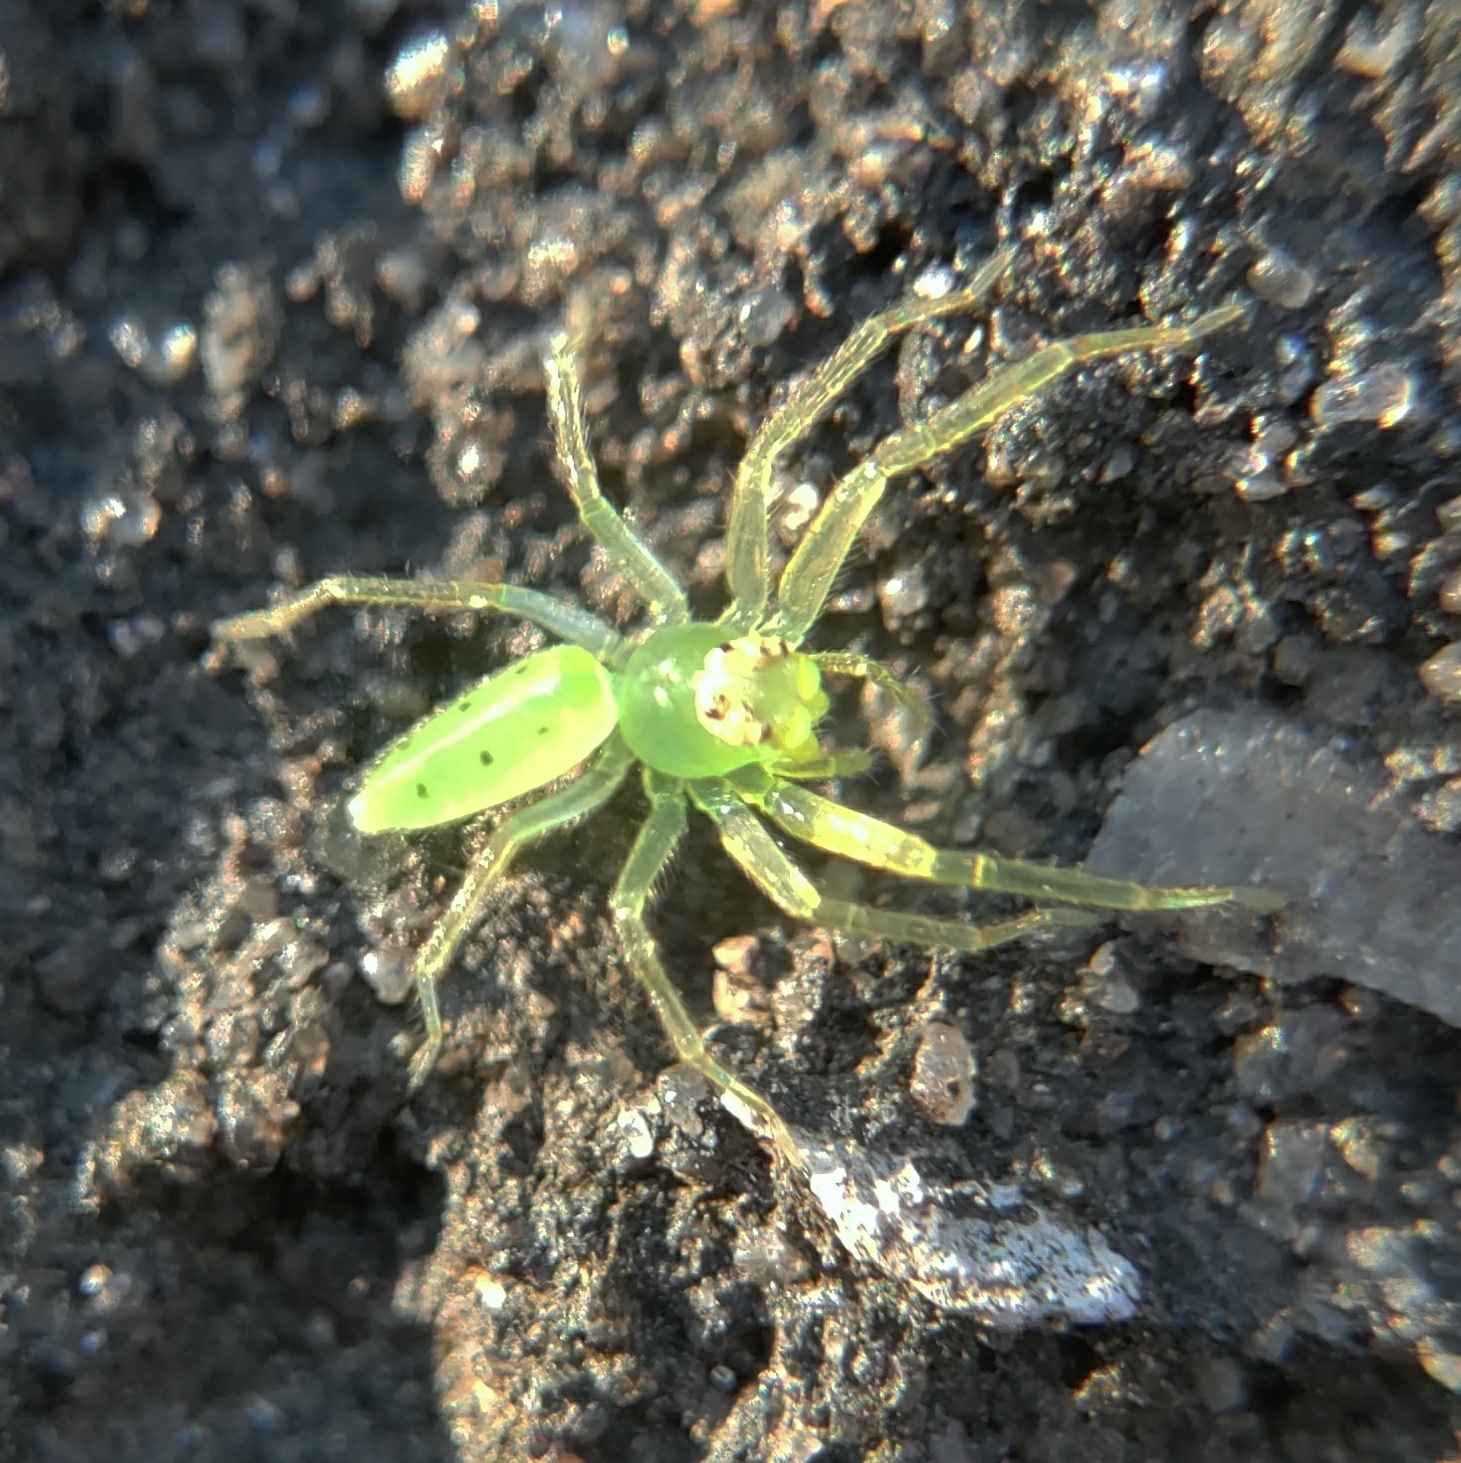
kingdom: Animalia
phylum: Arthropoda
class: Arachnida
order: Araneae
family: Salticidae
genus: Lyssomanes
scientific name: Lyssomanes viridis
